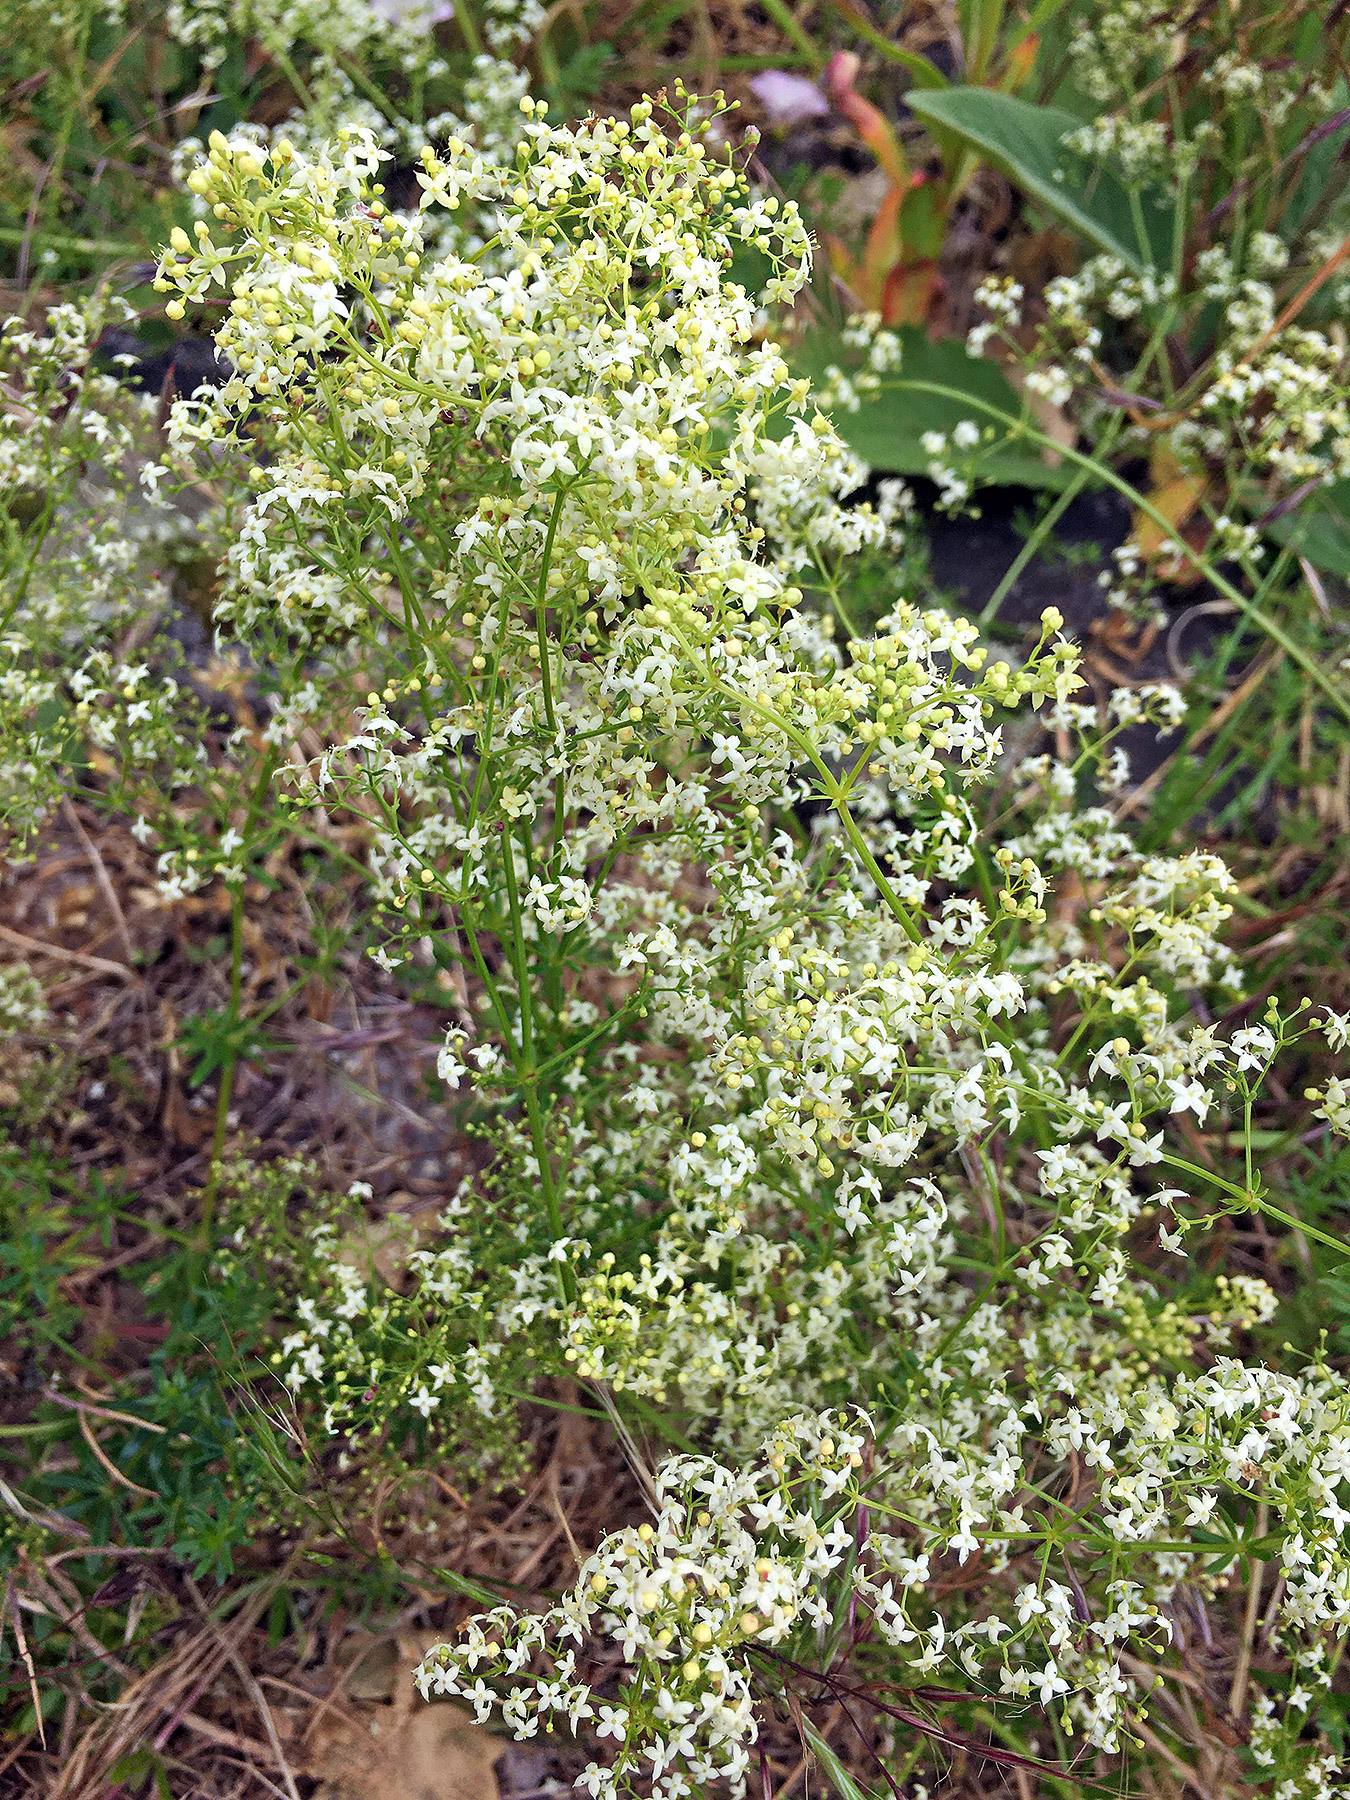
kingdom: Plantae
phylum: Tracheophyta
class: Magnoliopsida
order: Gentianales
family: Rubiaceae
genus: Galium
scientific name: Galium album
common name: White bedstraw
